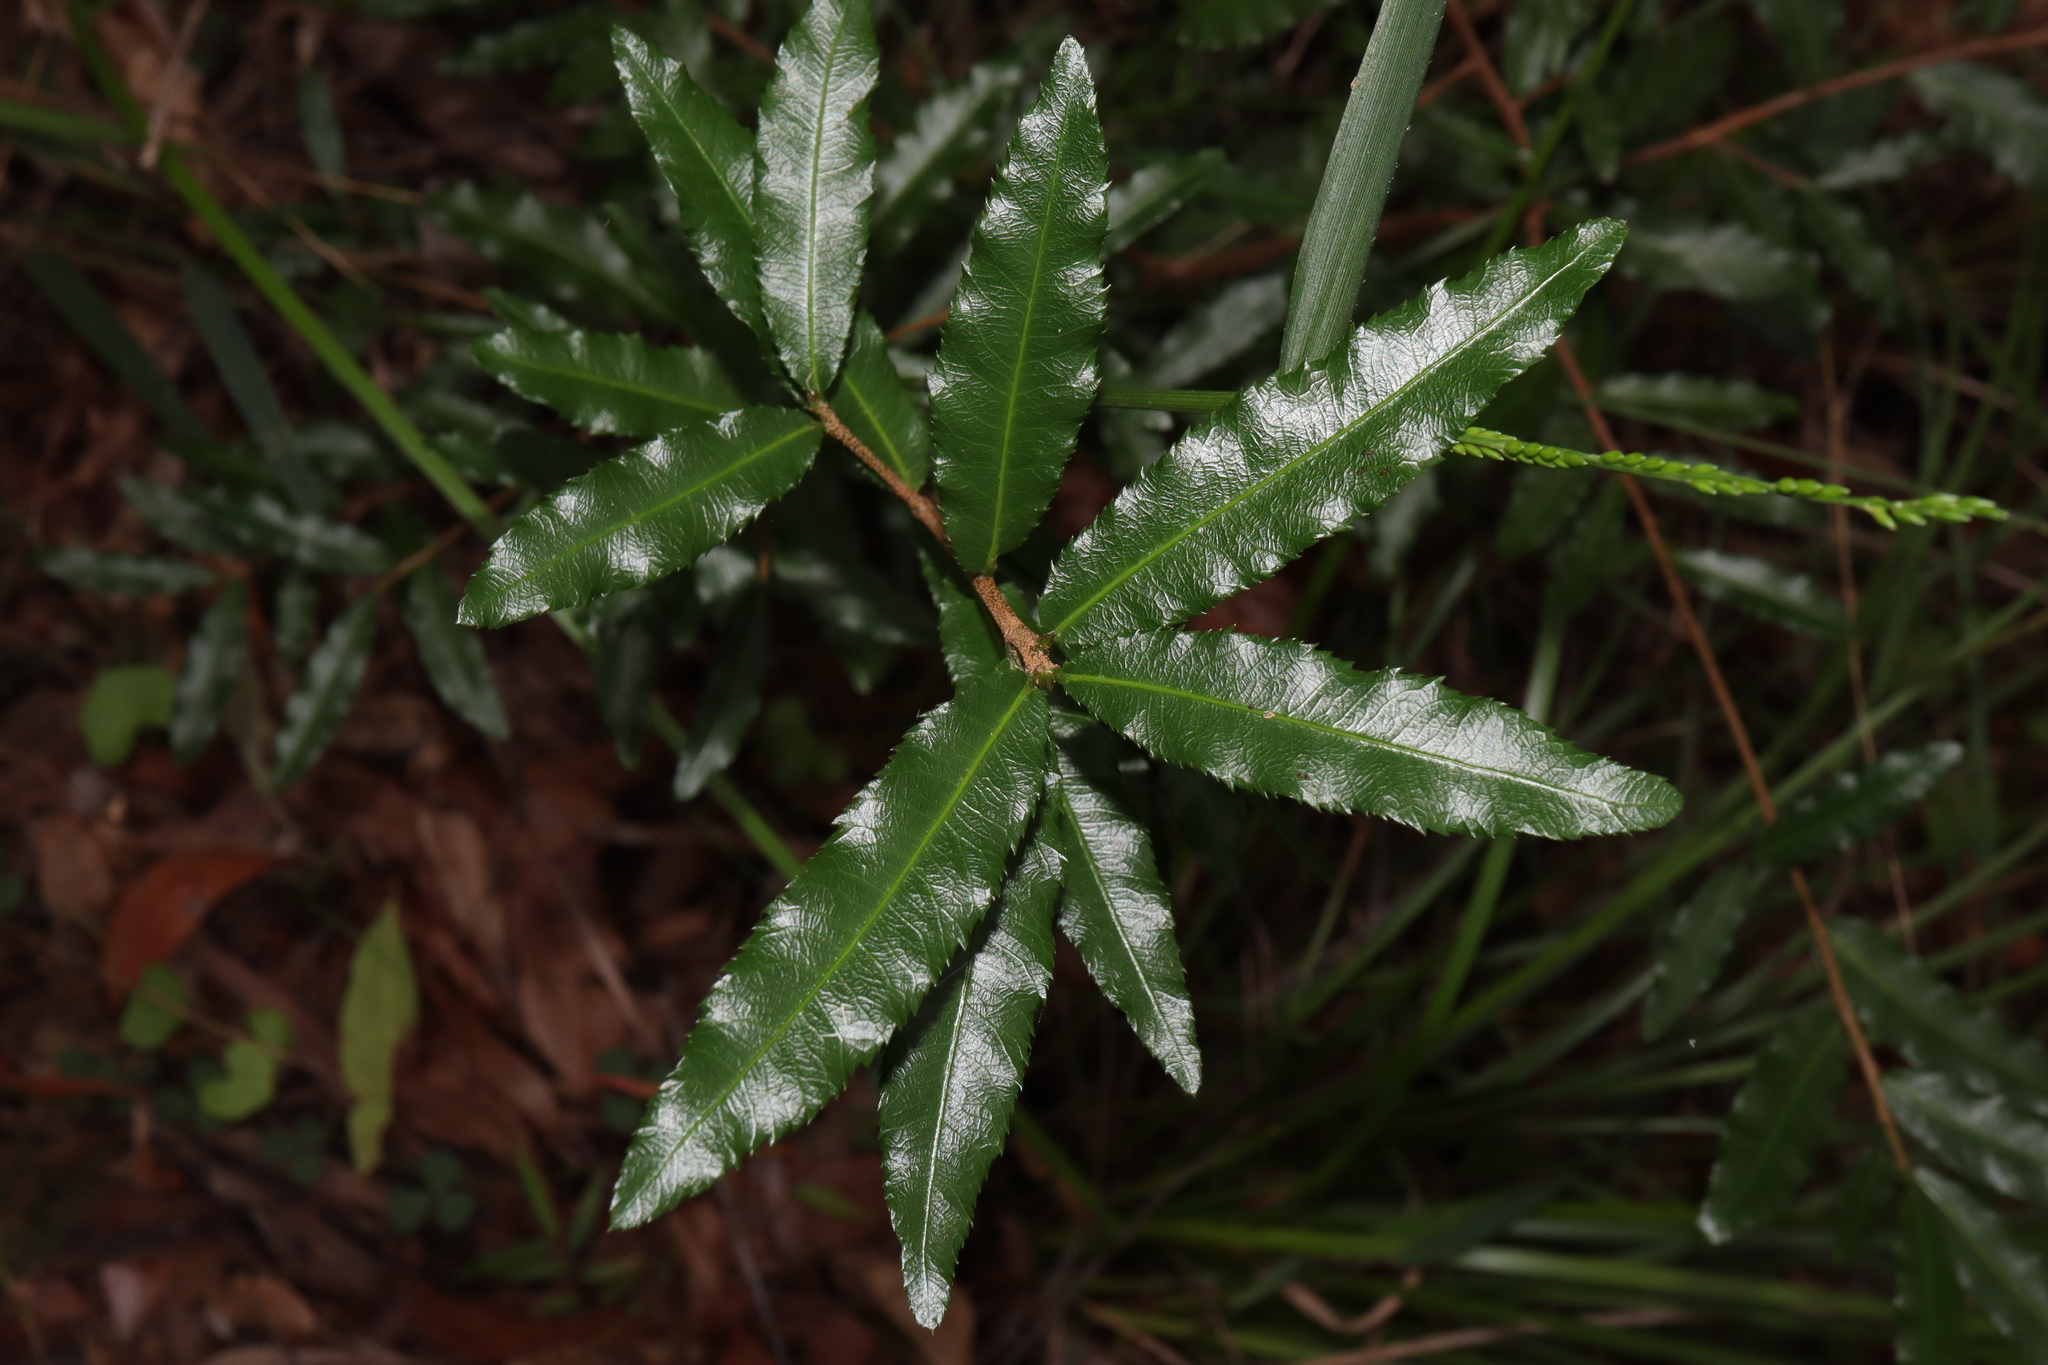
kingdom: Plantae
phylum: Tracheophyta
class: Magnoliopsida
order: Malpighiales
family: Ochnaceae
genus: Ochna
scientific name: Ochna serrulata
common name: Mickey mouse plant
